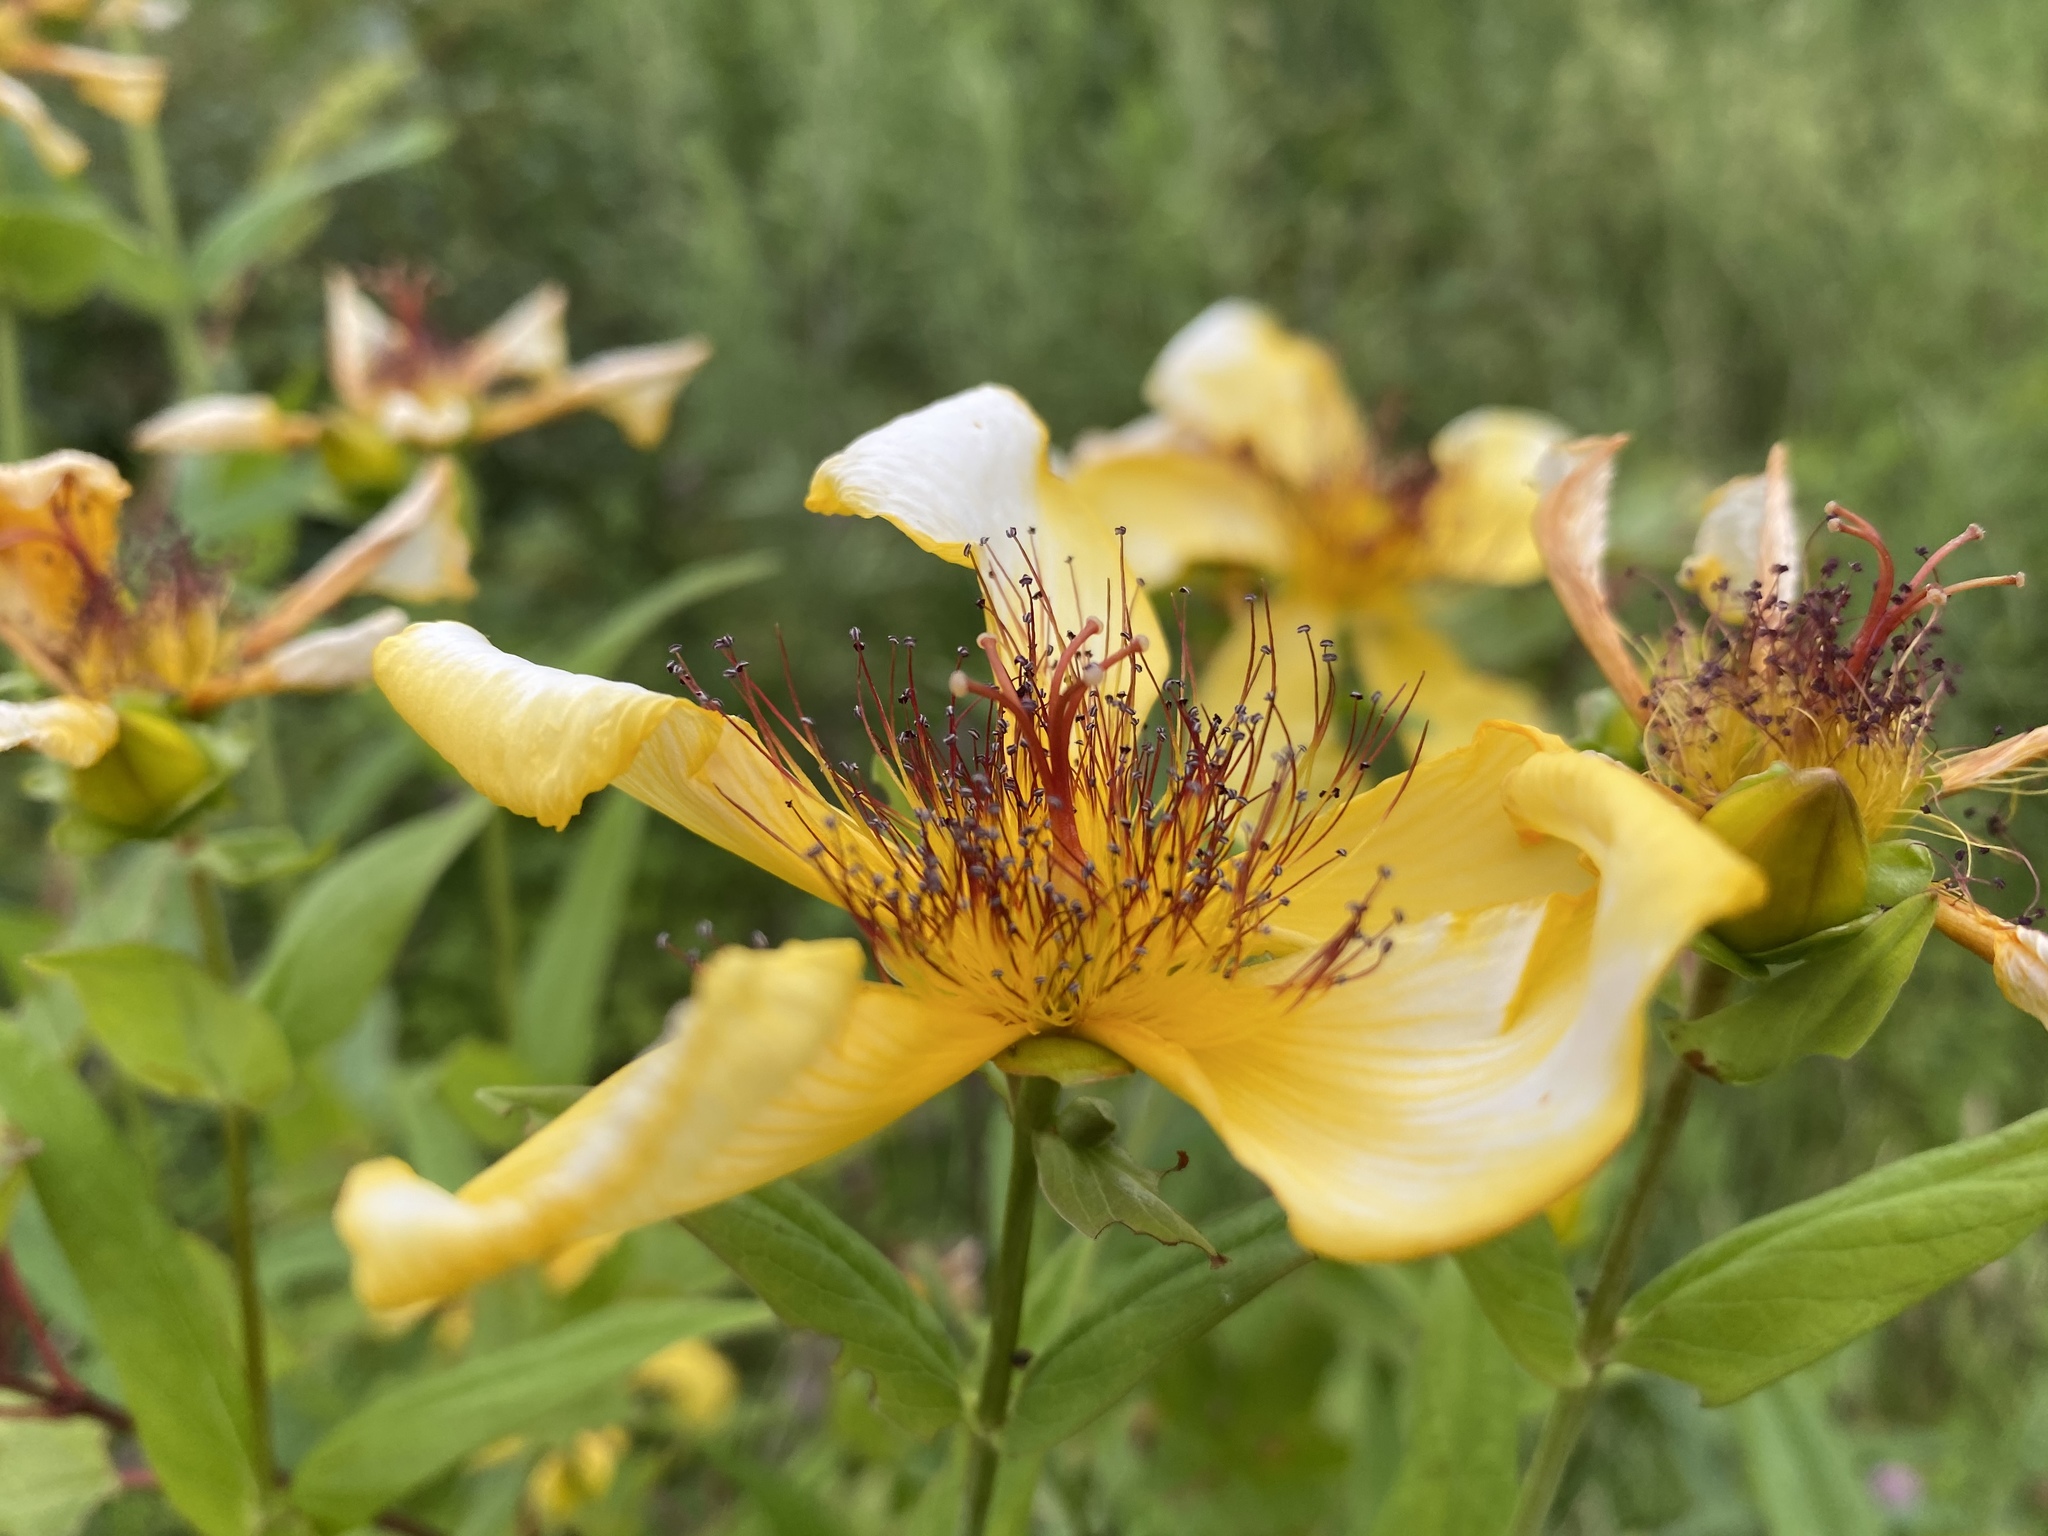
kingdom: Plantae
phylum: Tracheophyta
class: Magnoliopsida
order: Malpighiales
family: Hypericaceae
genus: Hypericum
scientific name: Hypericum ascyron
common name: Giant st. john's-wort
